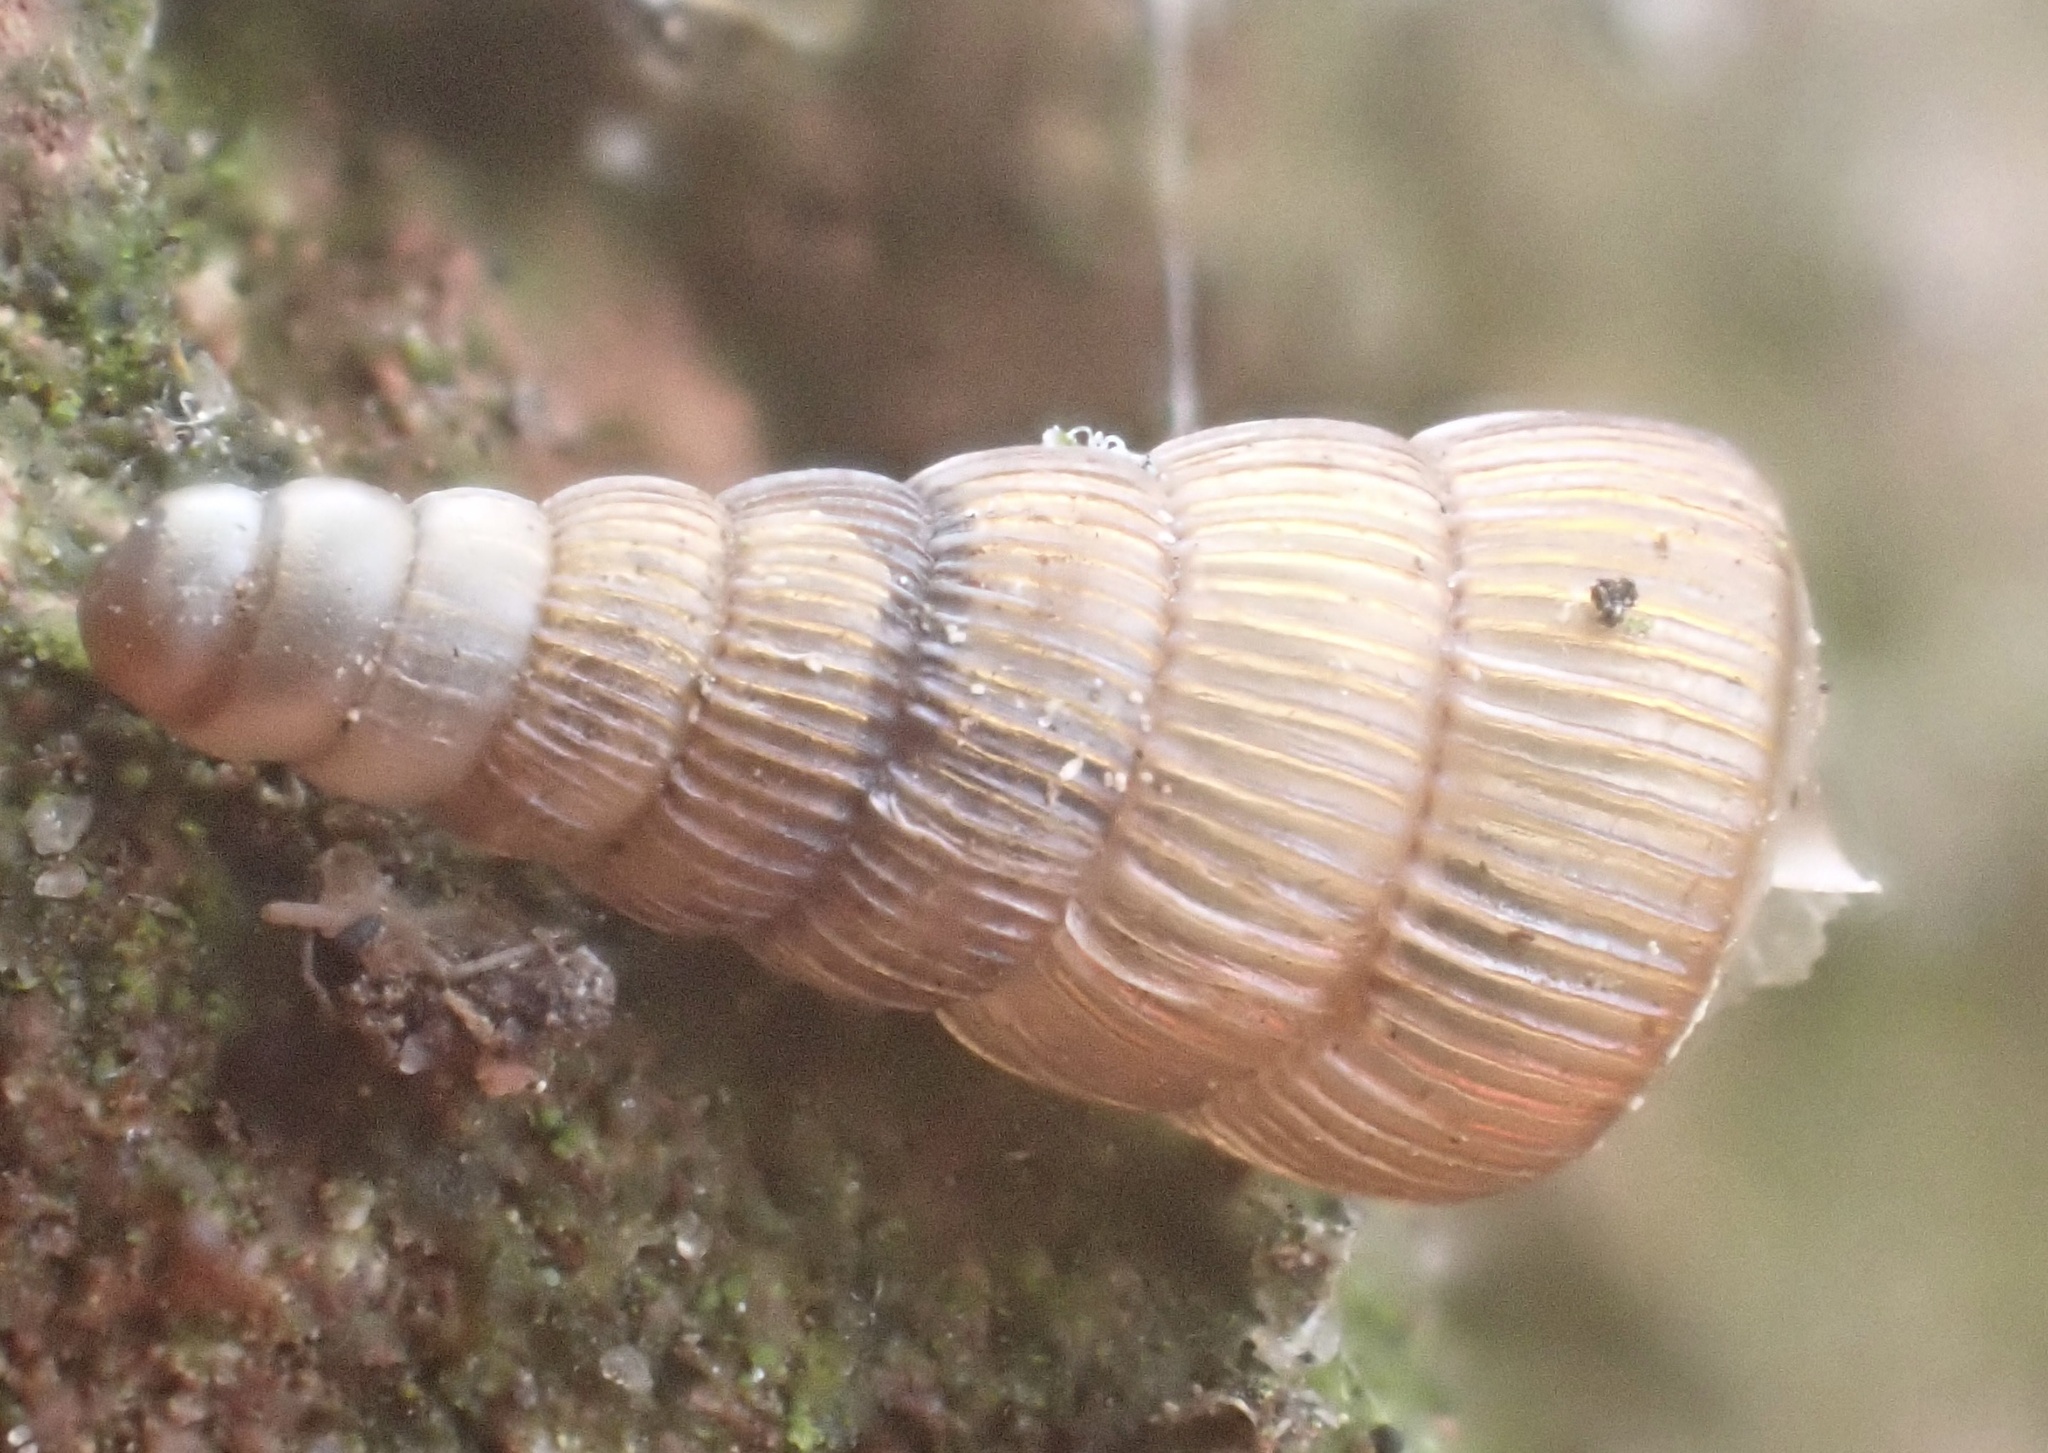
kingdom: Animalia
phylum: Mollusca
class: Gastropoda
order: Stylommatophora
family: Clausiliidae
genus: Alinda
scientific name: Alinda biplicata
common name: Thames door snail
